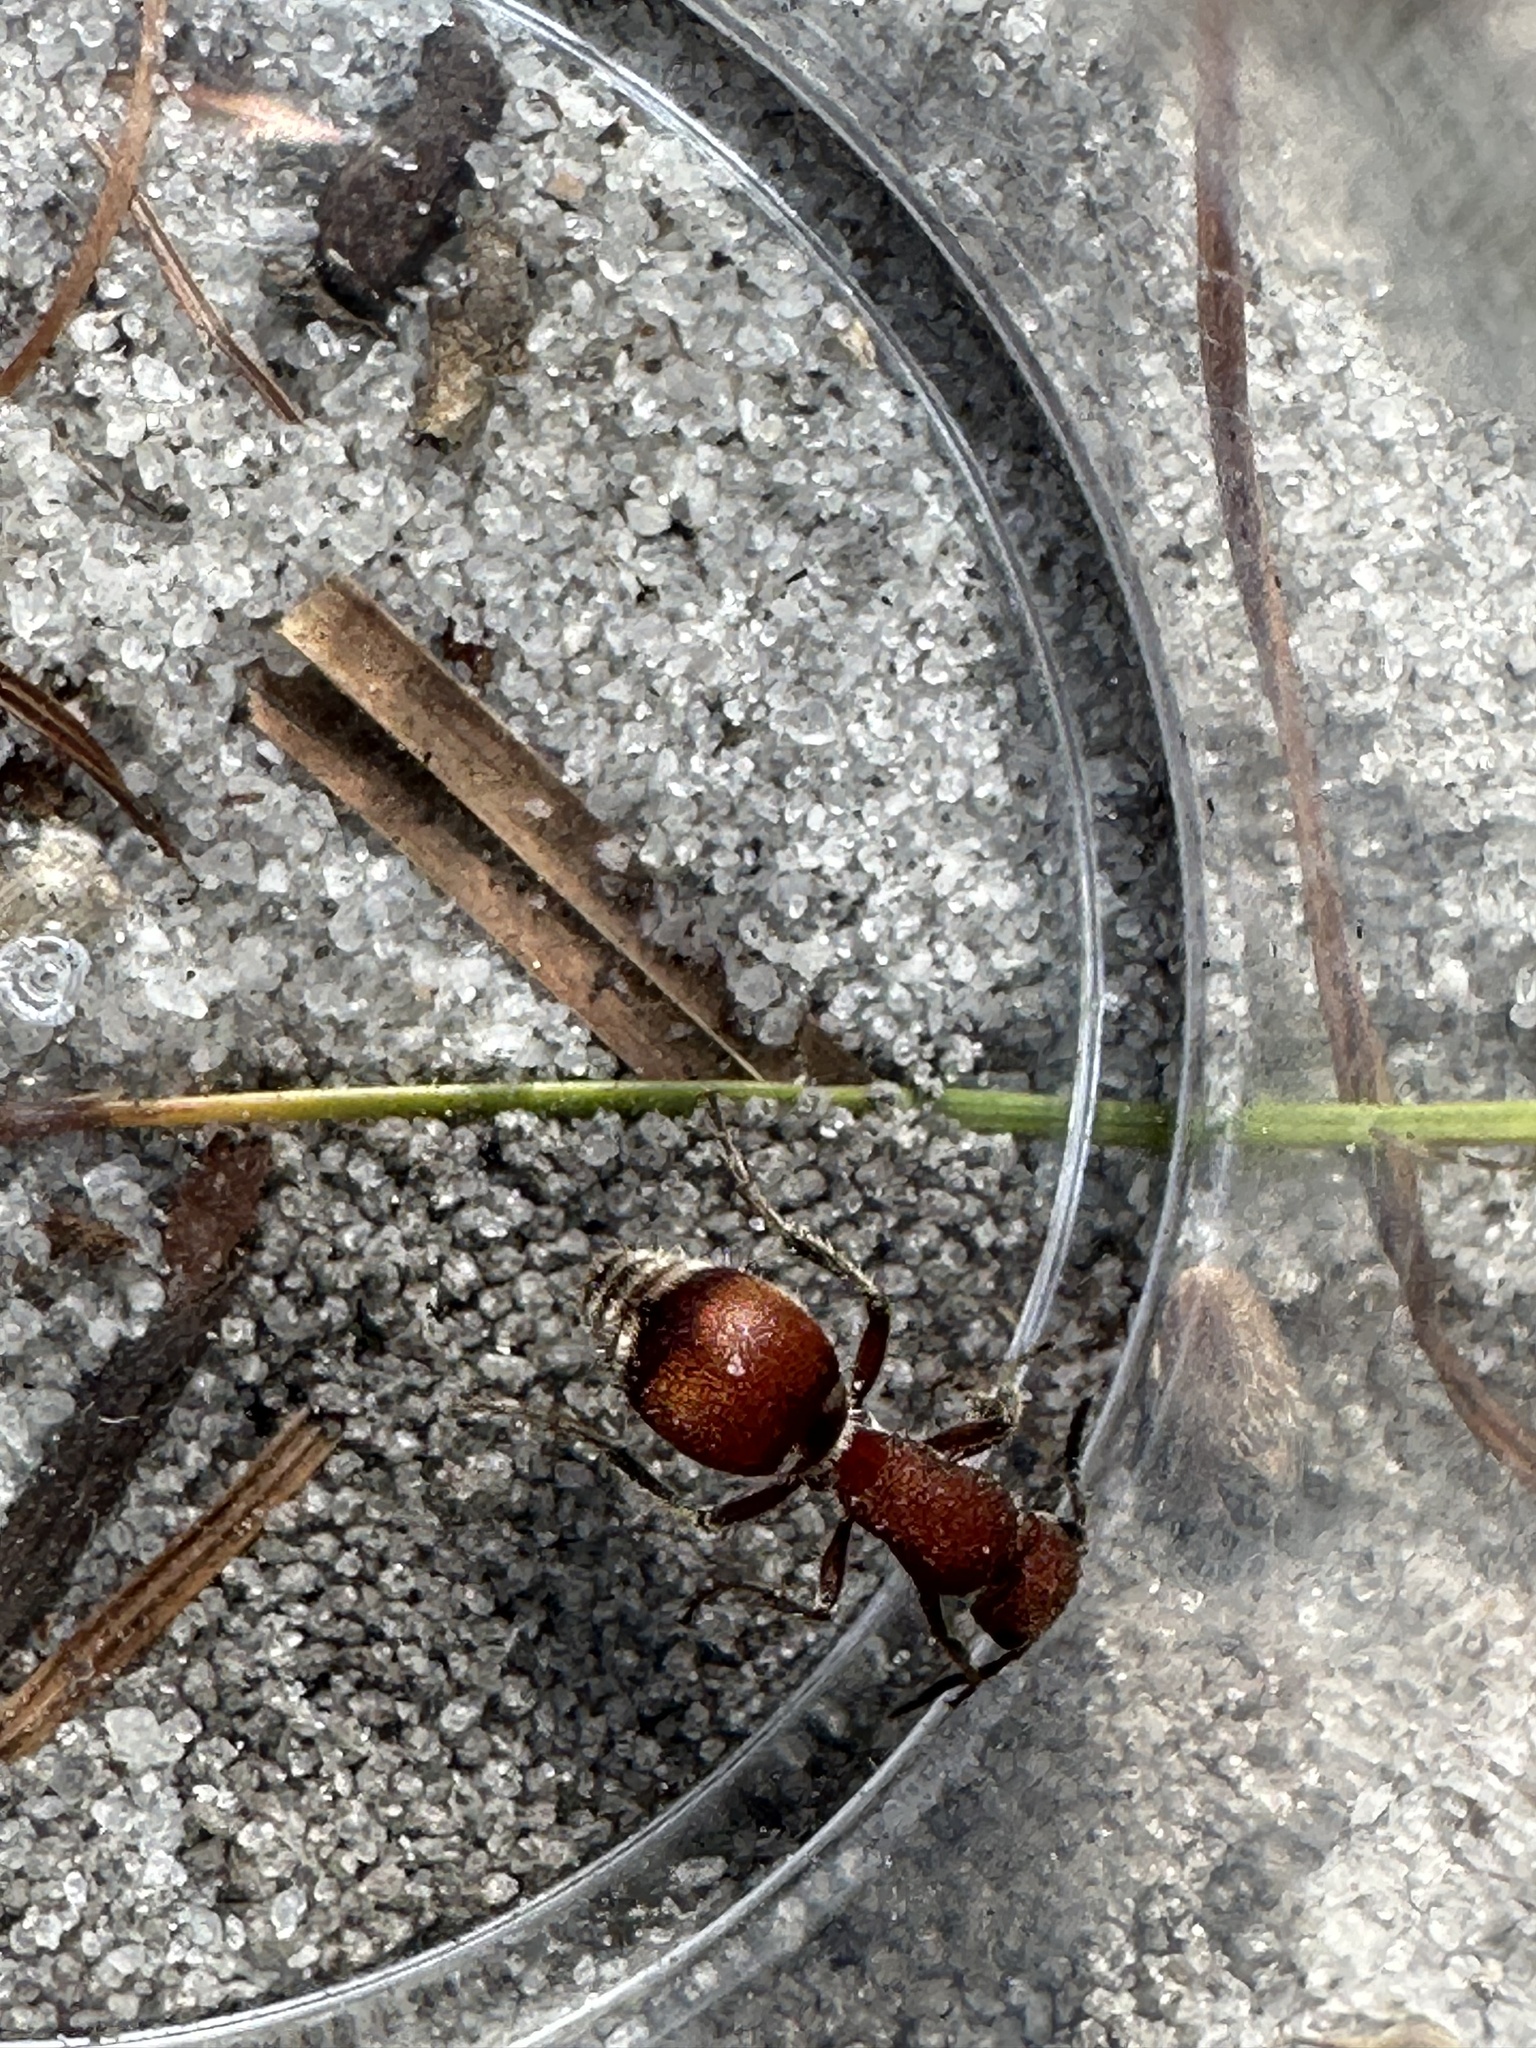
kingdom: Animalia
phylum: Arthropoda
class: Insecta
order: Hymenoptera
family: Mutillidae
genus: Pseudomethoca
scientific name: Pseudomethoca sanbornii
